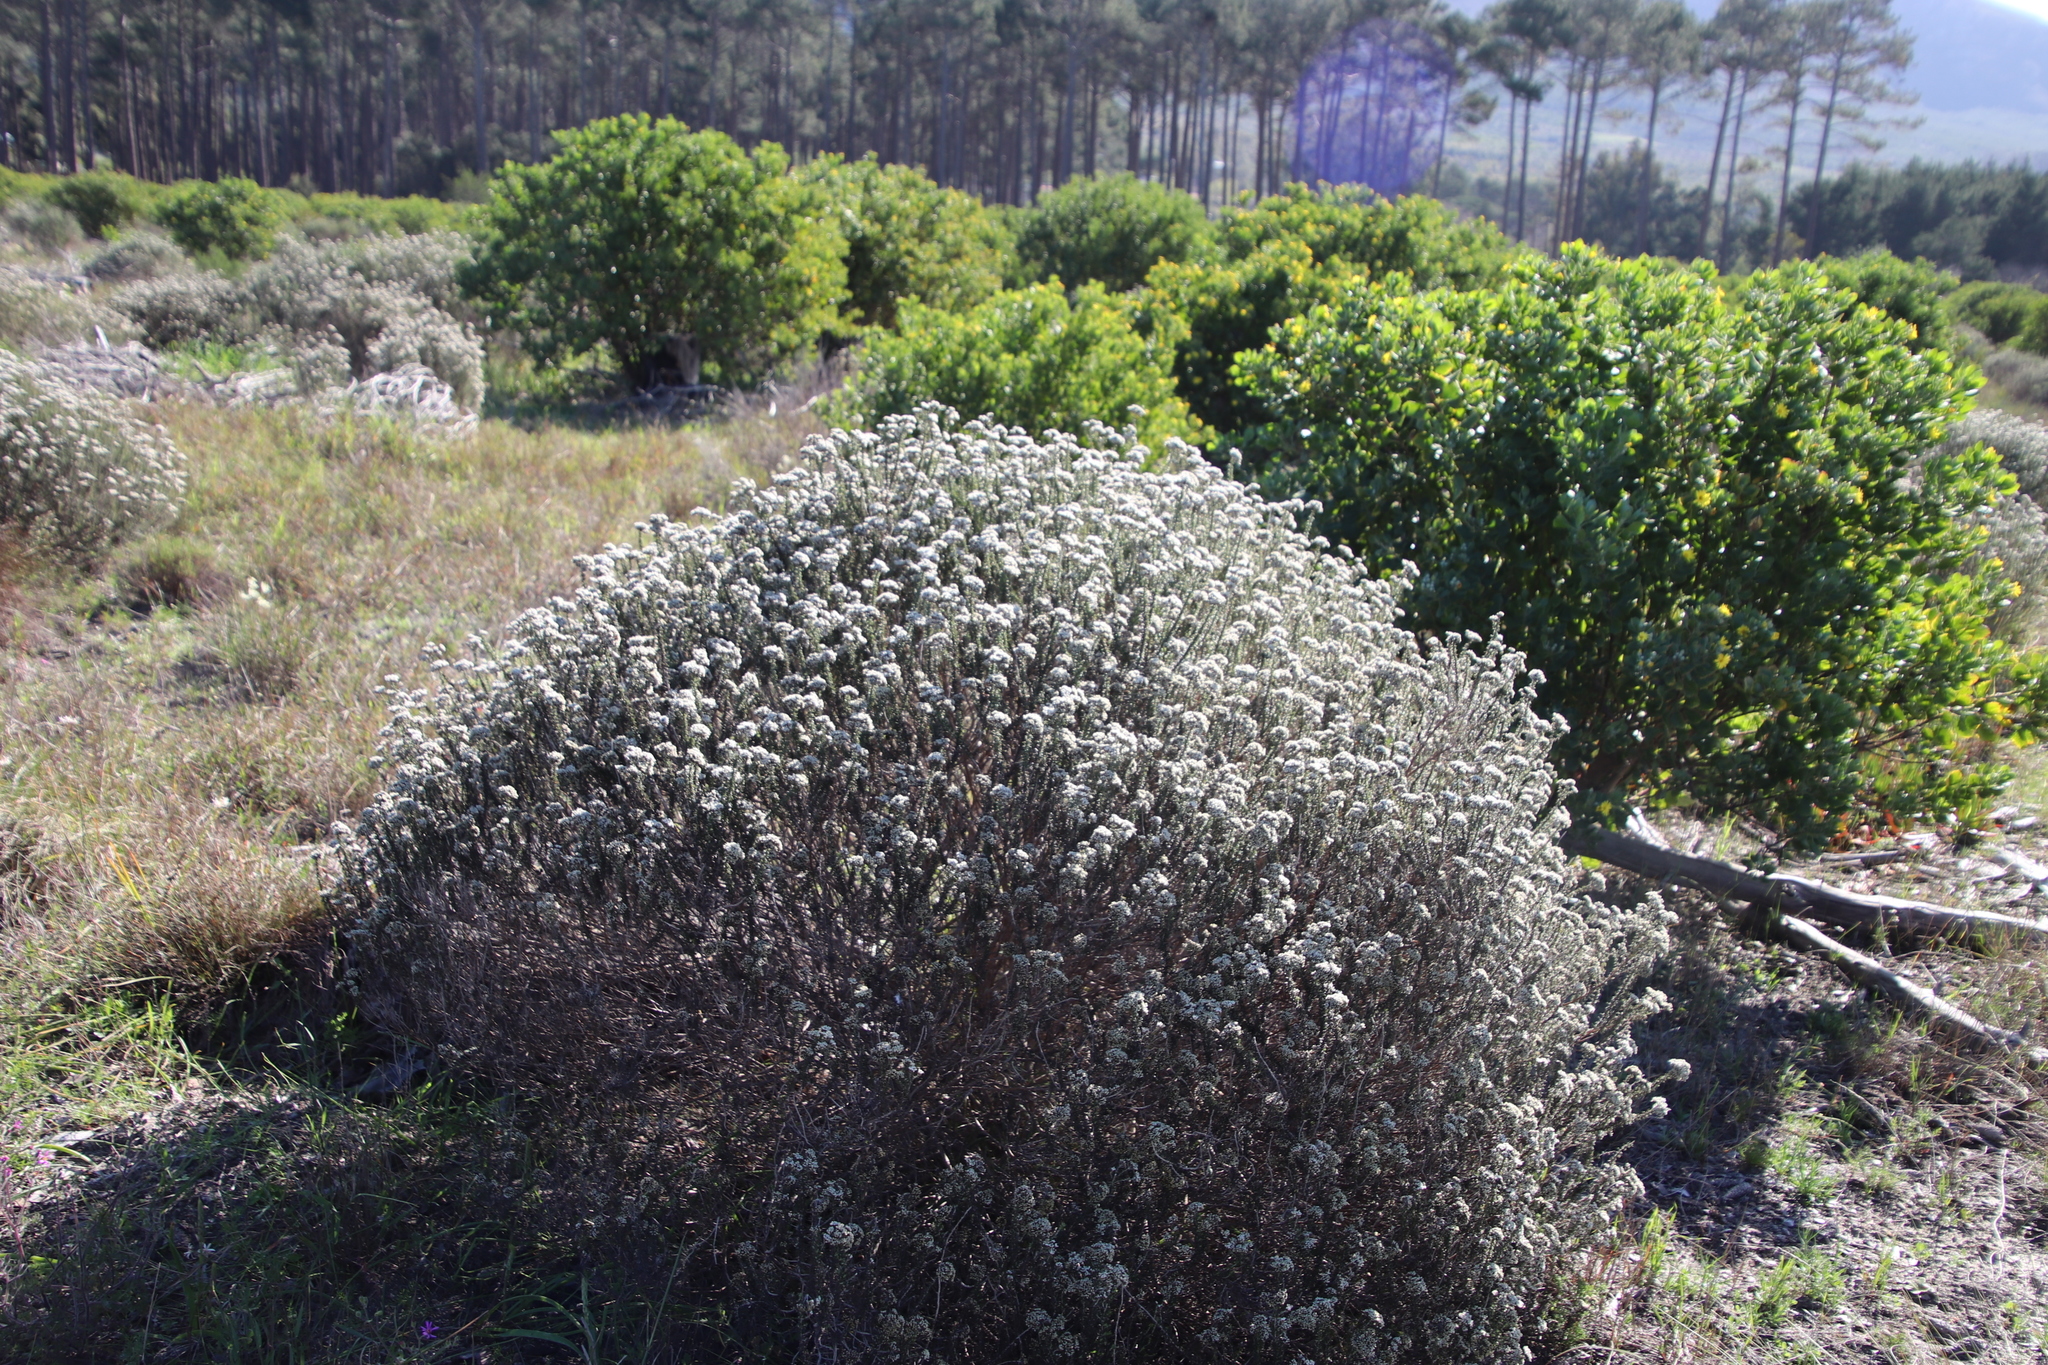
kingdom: Plantae
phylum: Tracheophyta
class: Magnoliopsida
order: Asterales
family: Asteraceae
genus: Metalasia
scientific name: Metalasia densa
